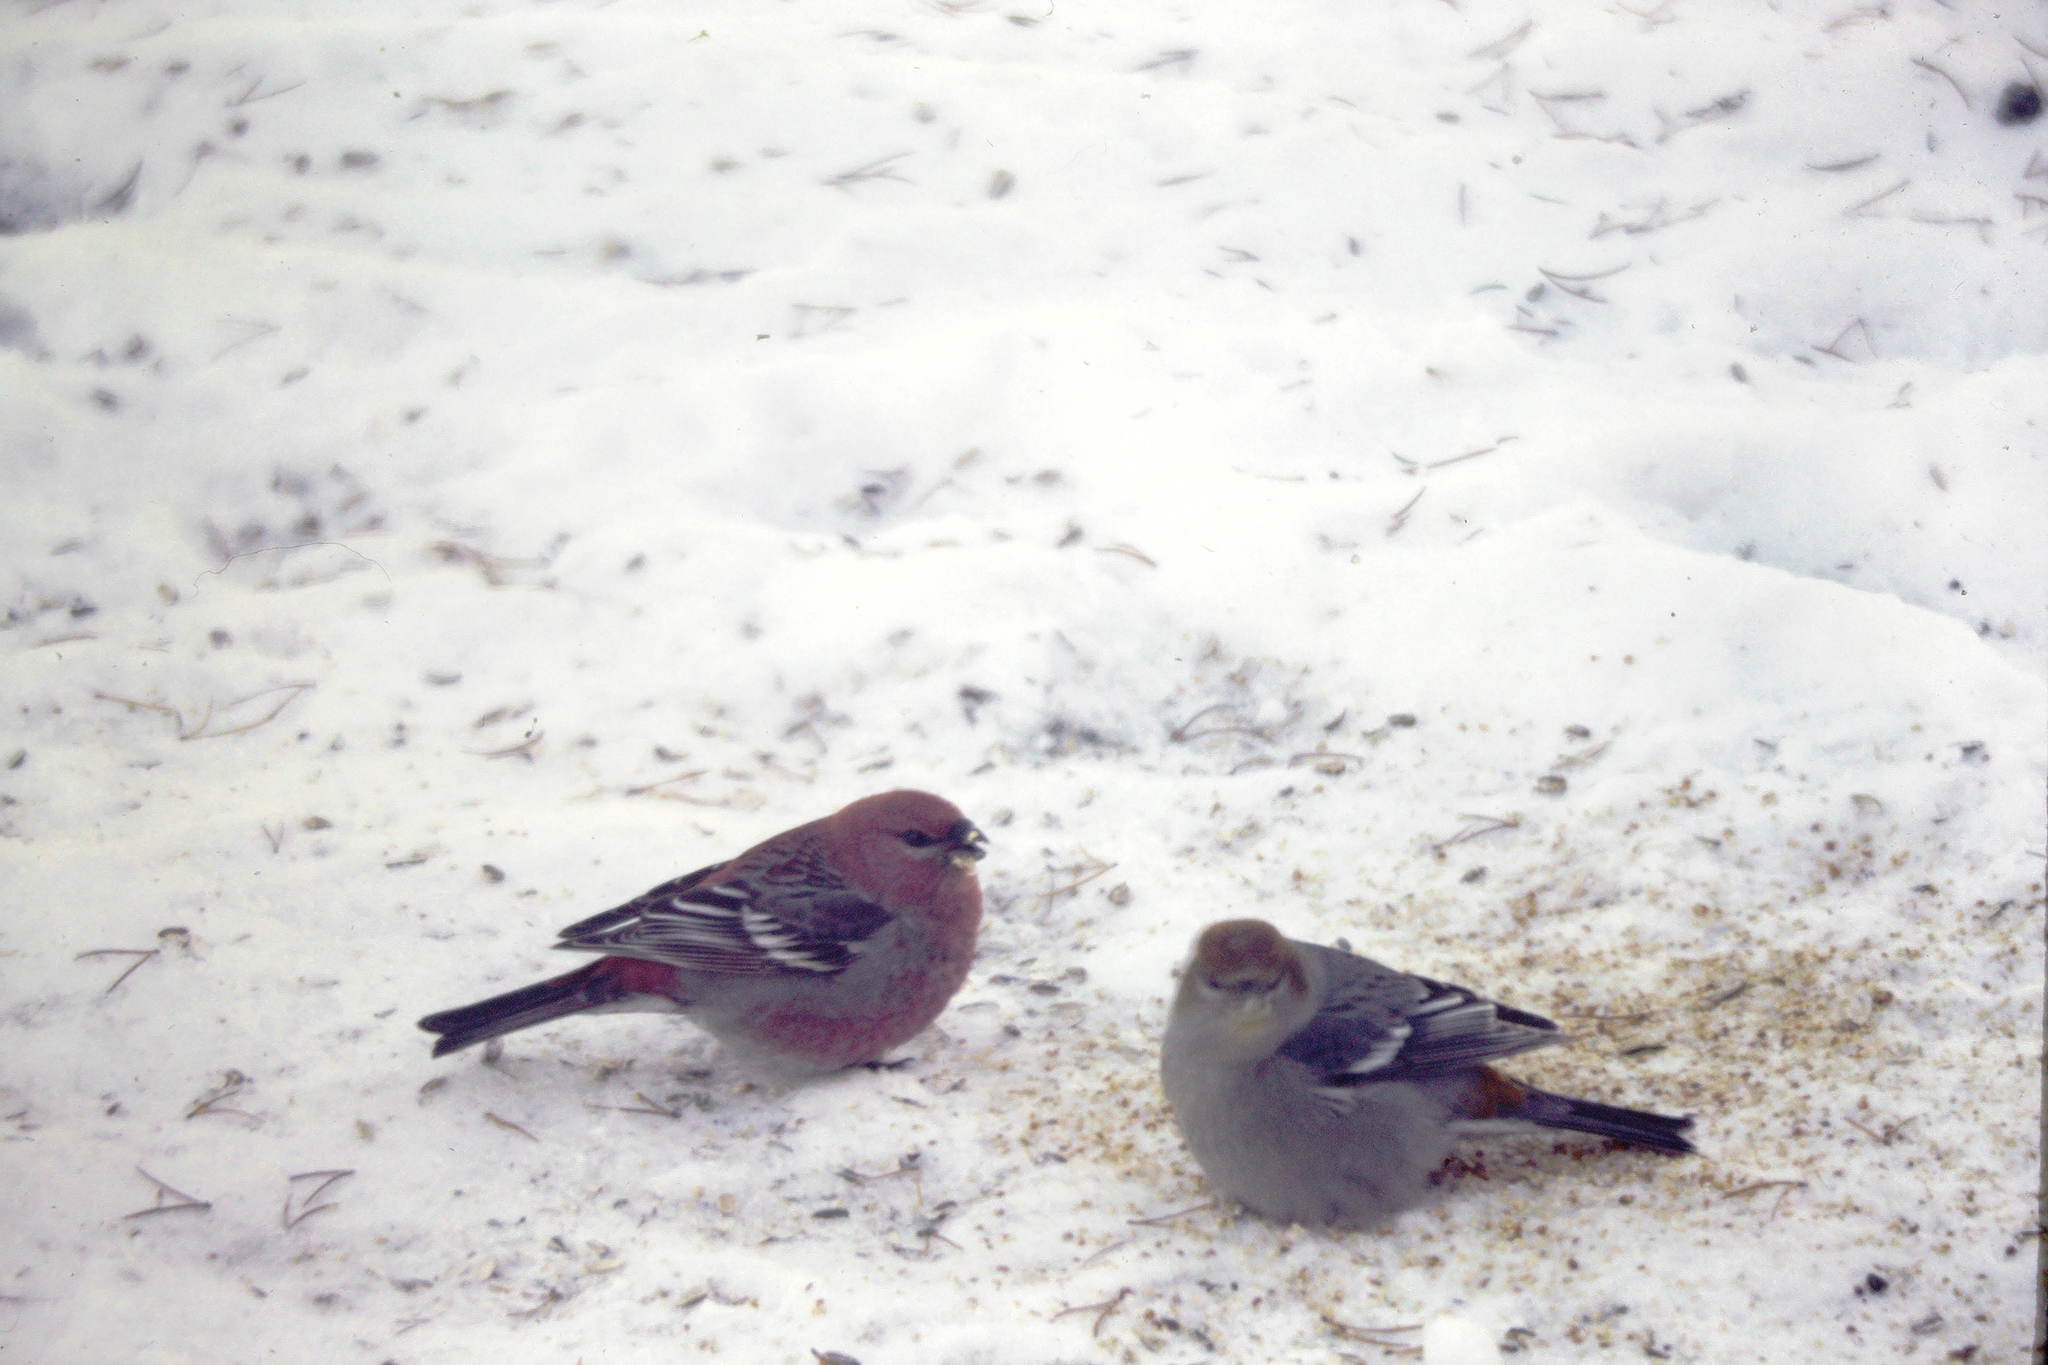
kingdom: Animalia
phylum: Chordata
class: Aves
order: Passeriformes
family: Fringillidae
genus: Pinicola
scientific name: Pinicola enucleator
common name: Pine grosbeak
